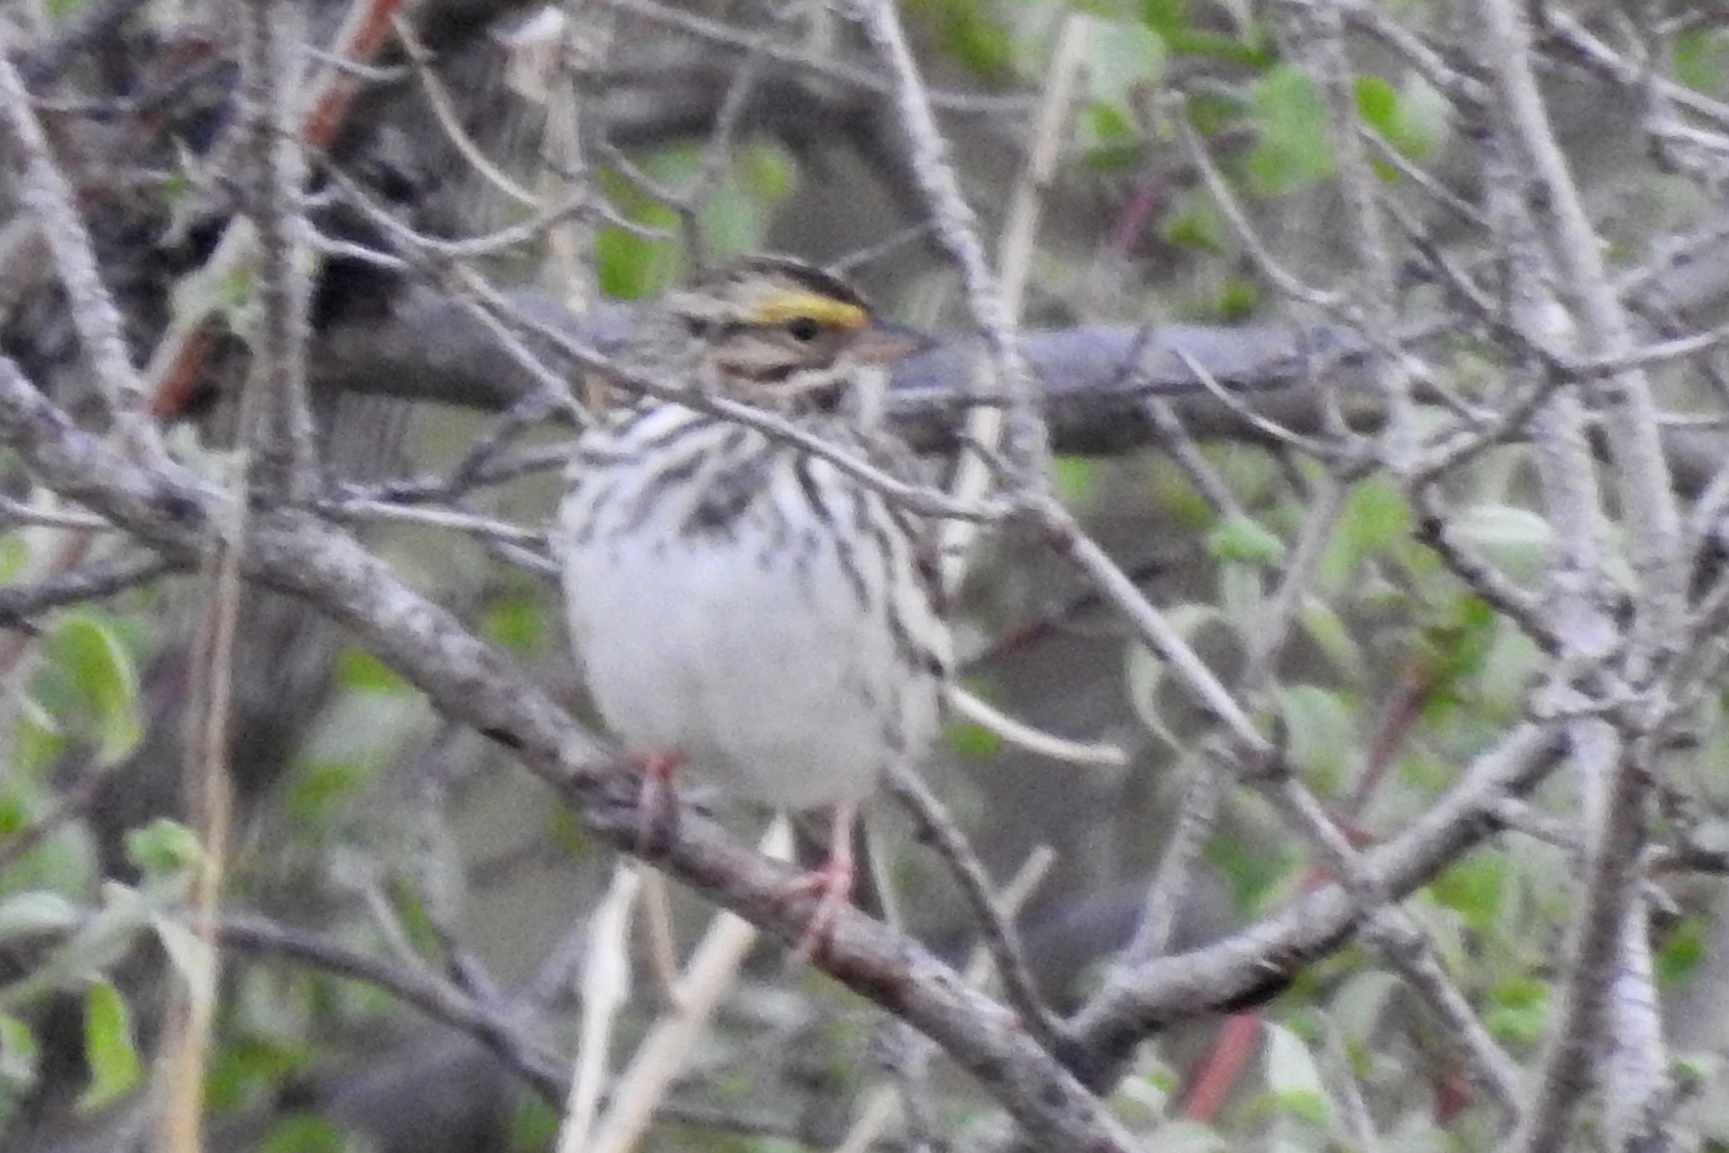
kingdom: Animalia
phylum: Chordata
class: Aves
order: Passeriformes
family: Passerellidae
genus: Passerculus
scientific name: Passerculus sandwichensis
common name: Savannah sparrow
